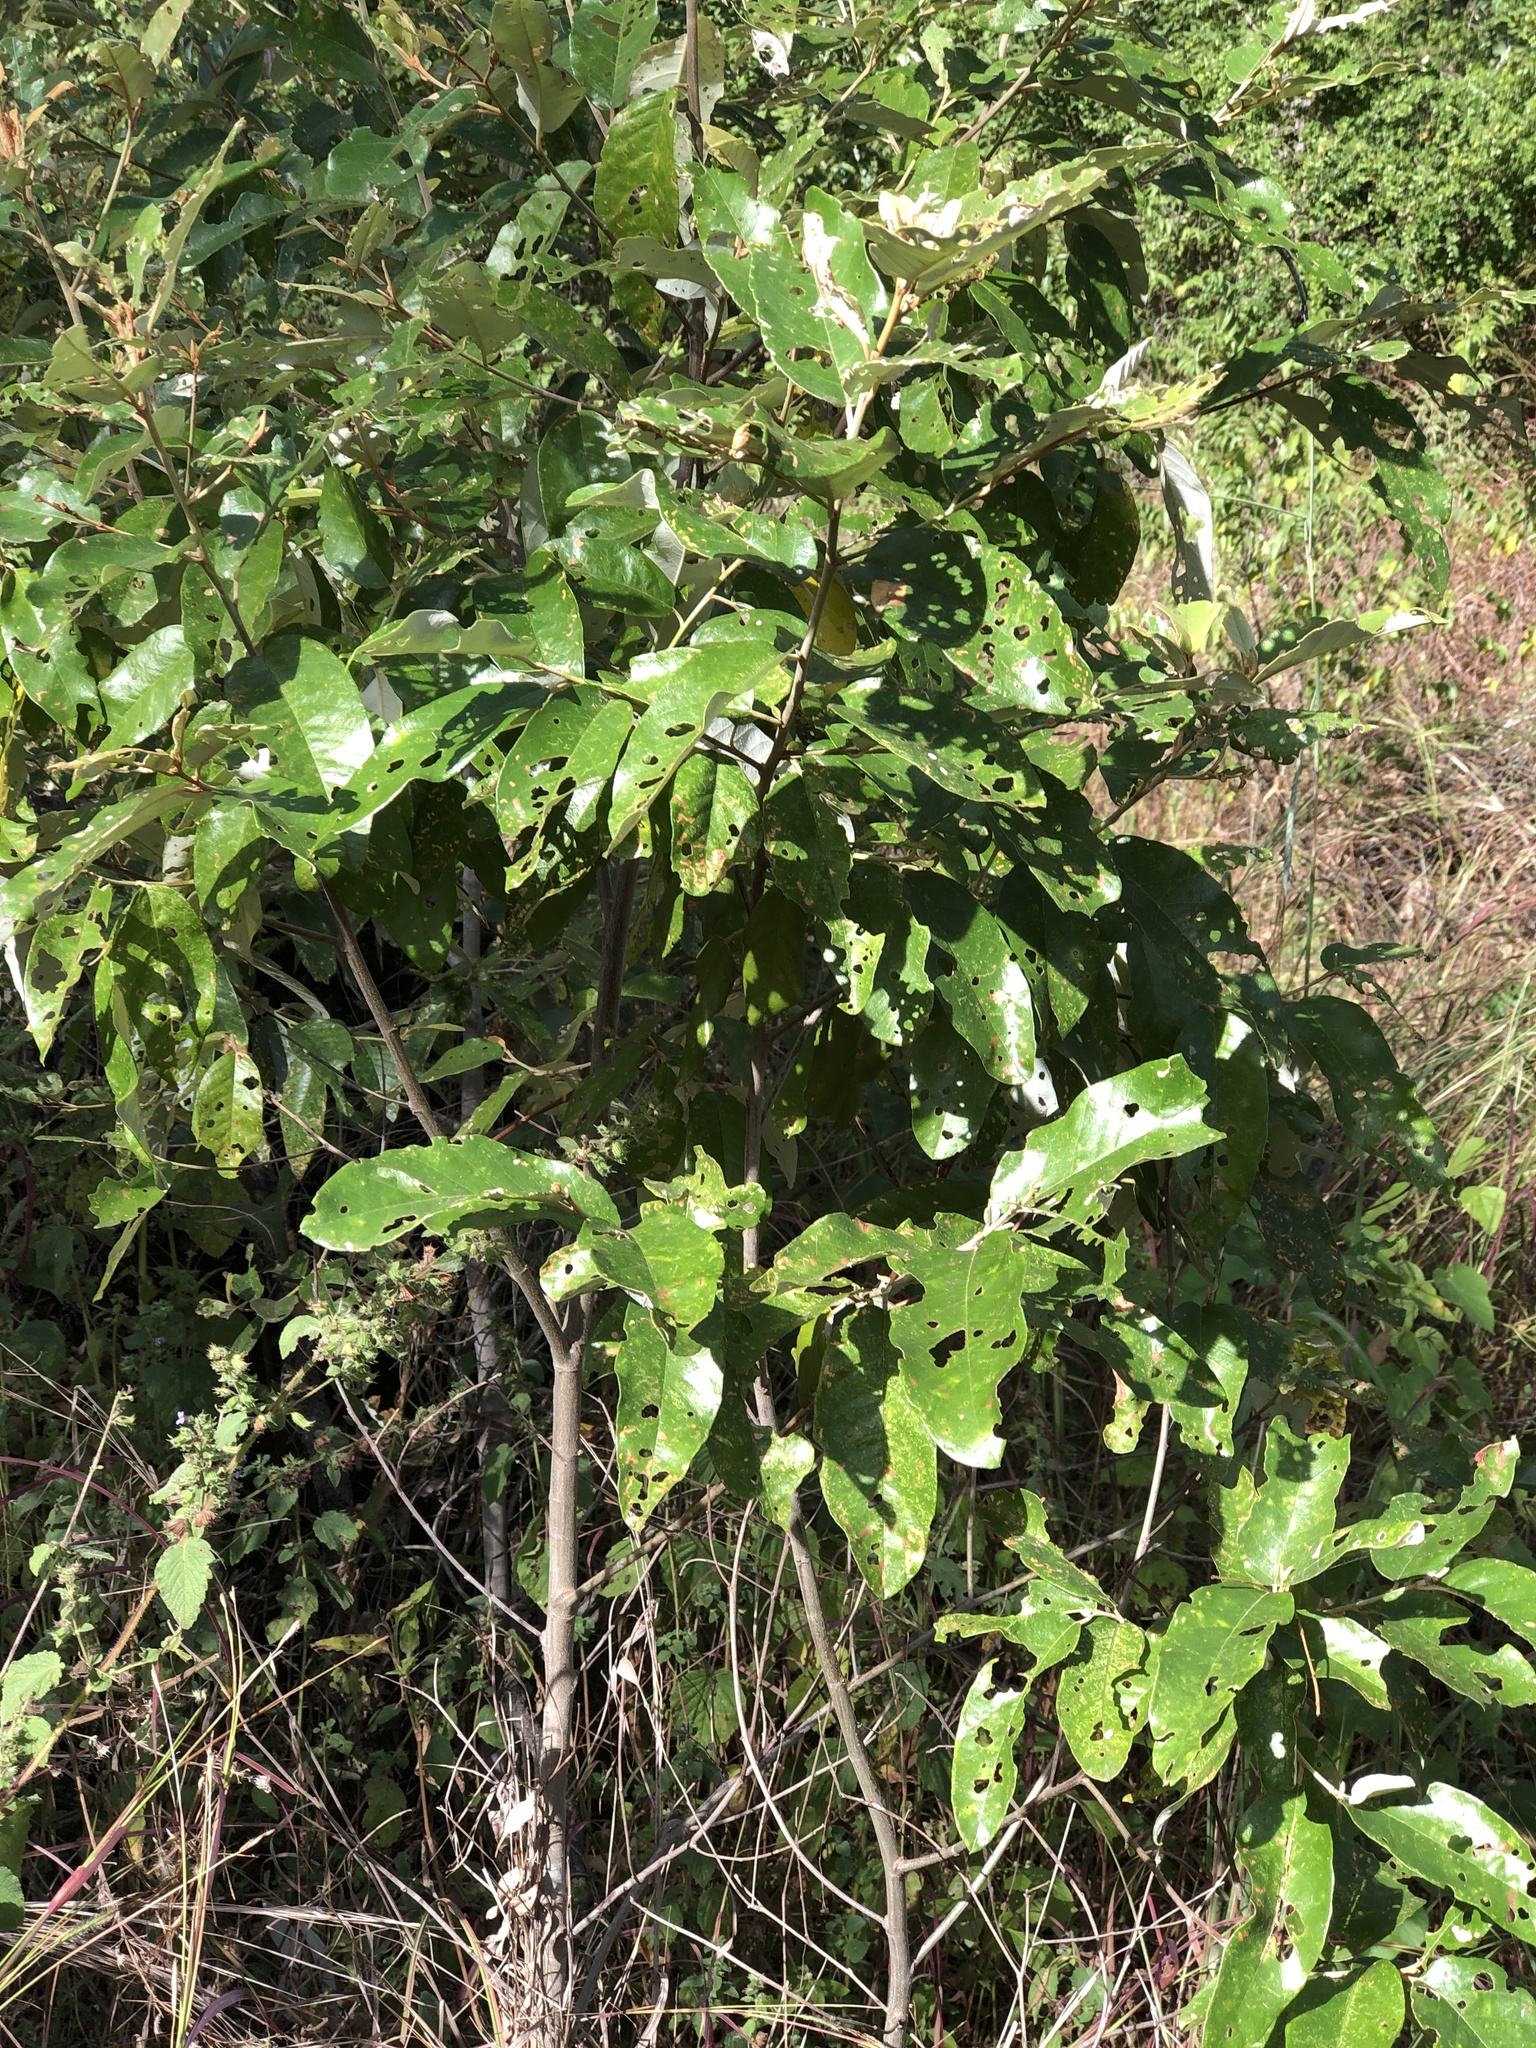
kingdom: Plantae
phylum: Tracheophyta
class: Magnoliopsida
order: Rosales
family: Rhamnaceae
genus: Alphitonia
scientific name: Alphitonia excelsa
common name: Red ash
